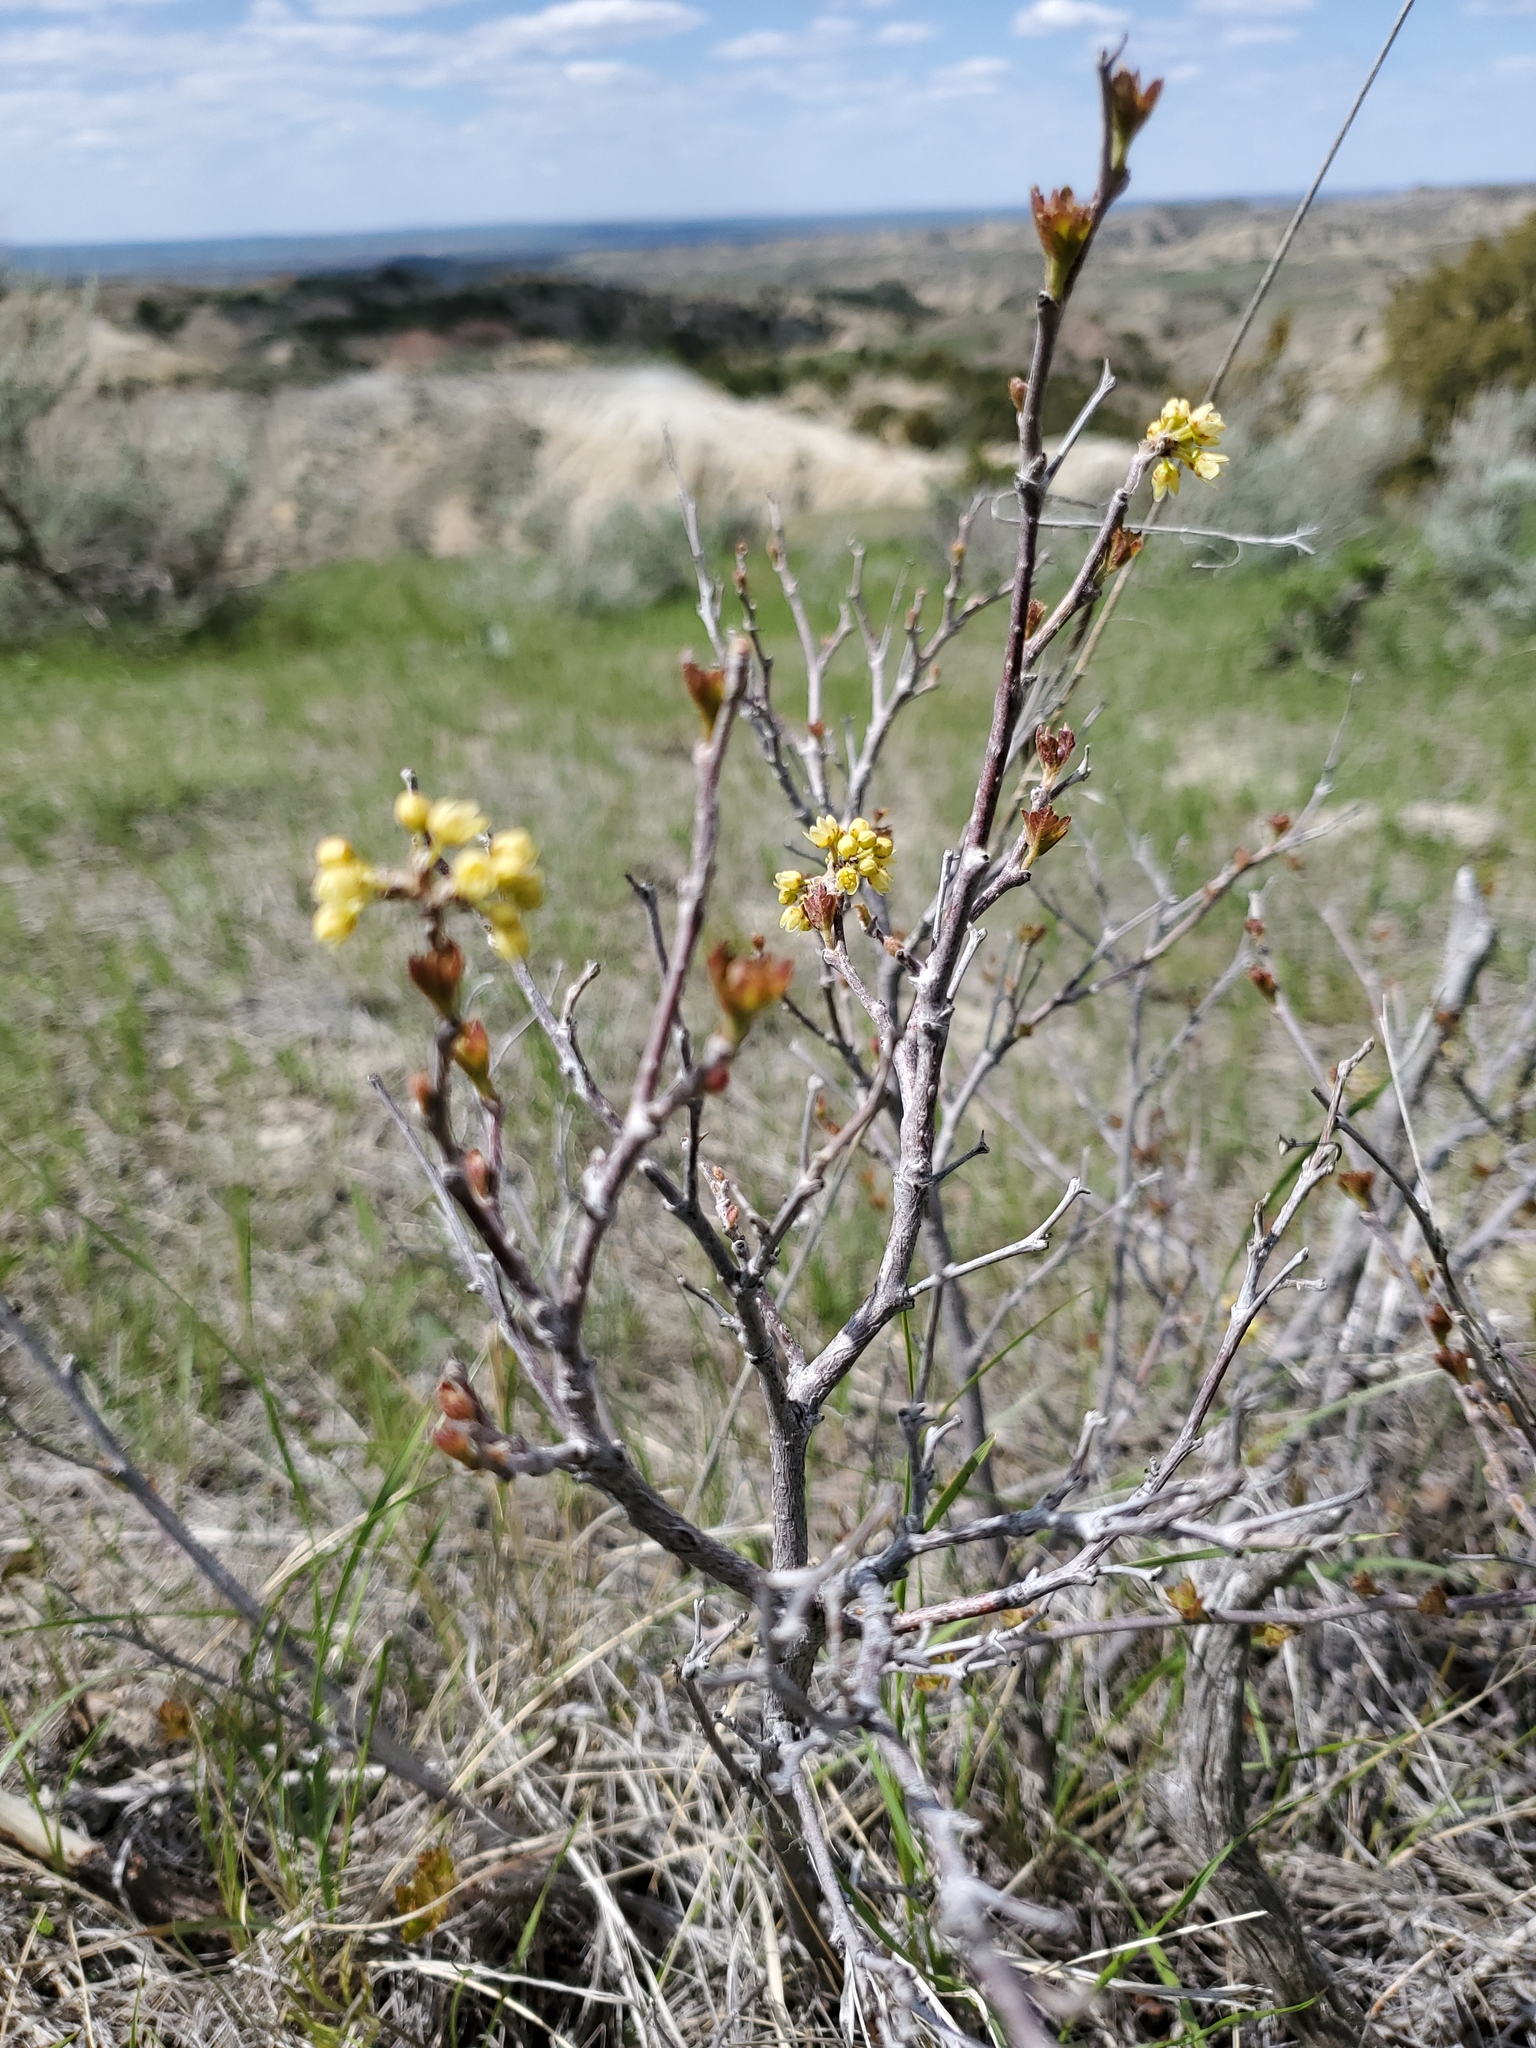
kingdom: Plantae
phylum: Tracheophyta
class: Magnoliopsida
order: Sapindales
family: Anacardiaceae
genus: Rhus
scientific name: Rhus aromatica
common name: Aromatic sumac
